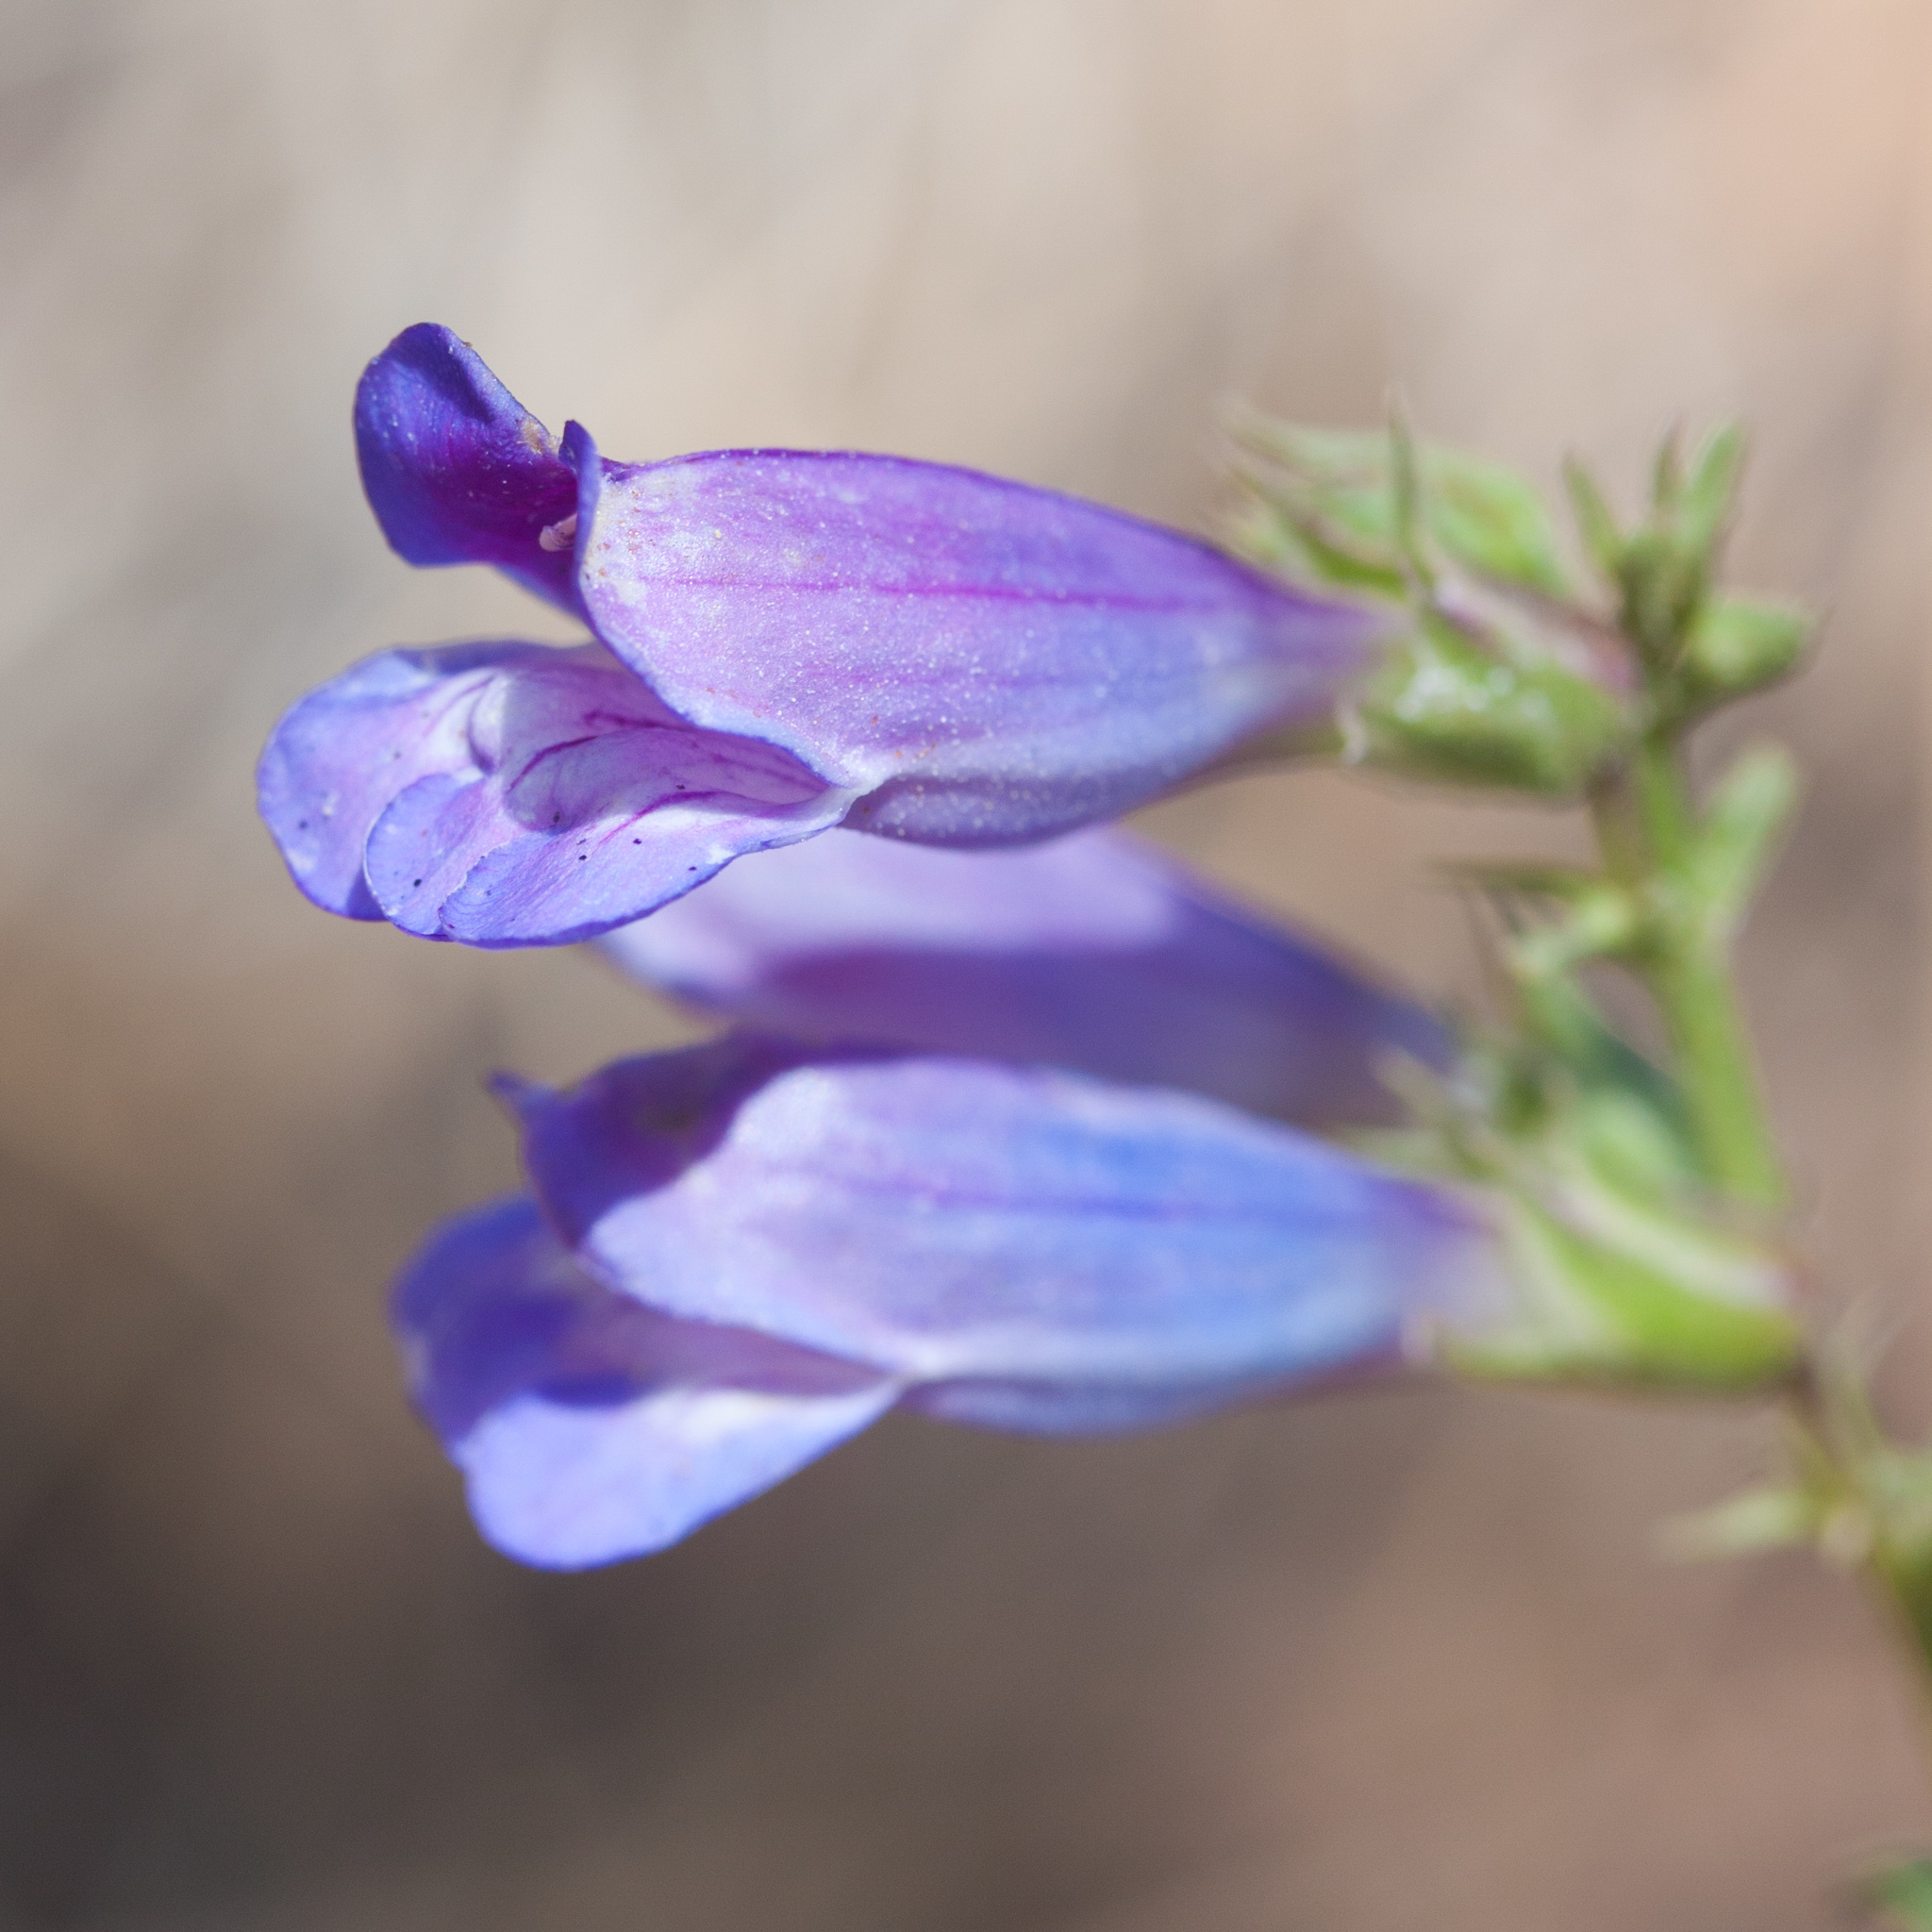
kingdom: Plantae
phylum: Tracheophyta
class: Magnoliopsida
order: Lamiales
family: Plantaginaceae
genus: Penstemon
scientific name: Penstemon speciosus
